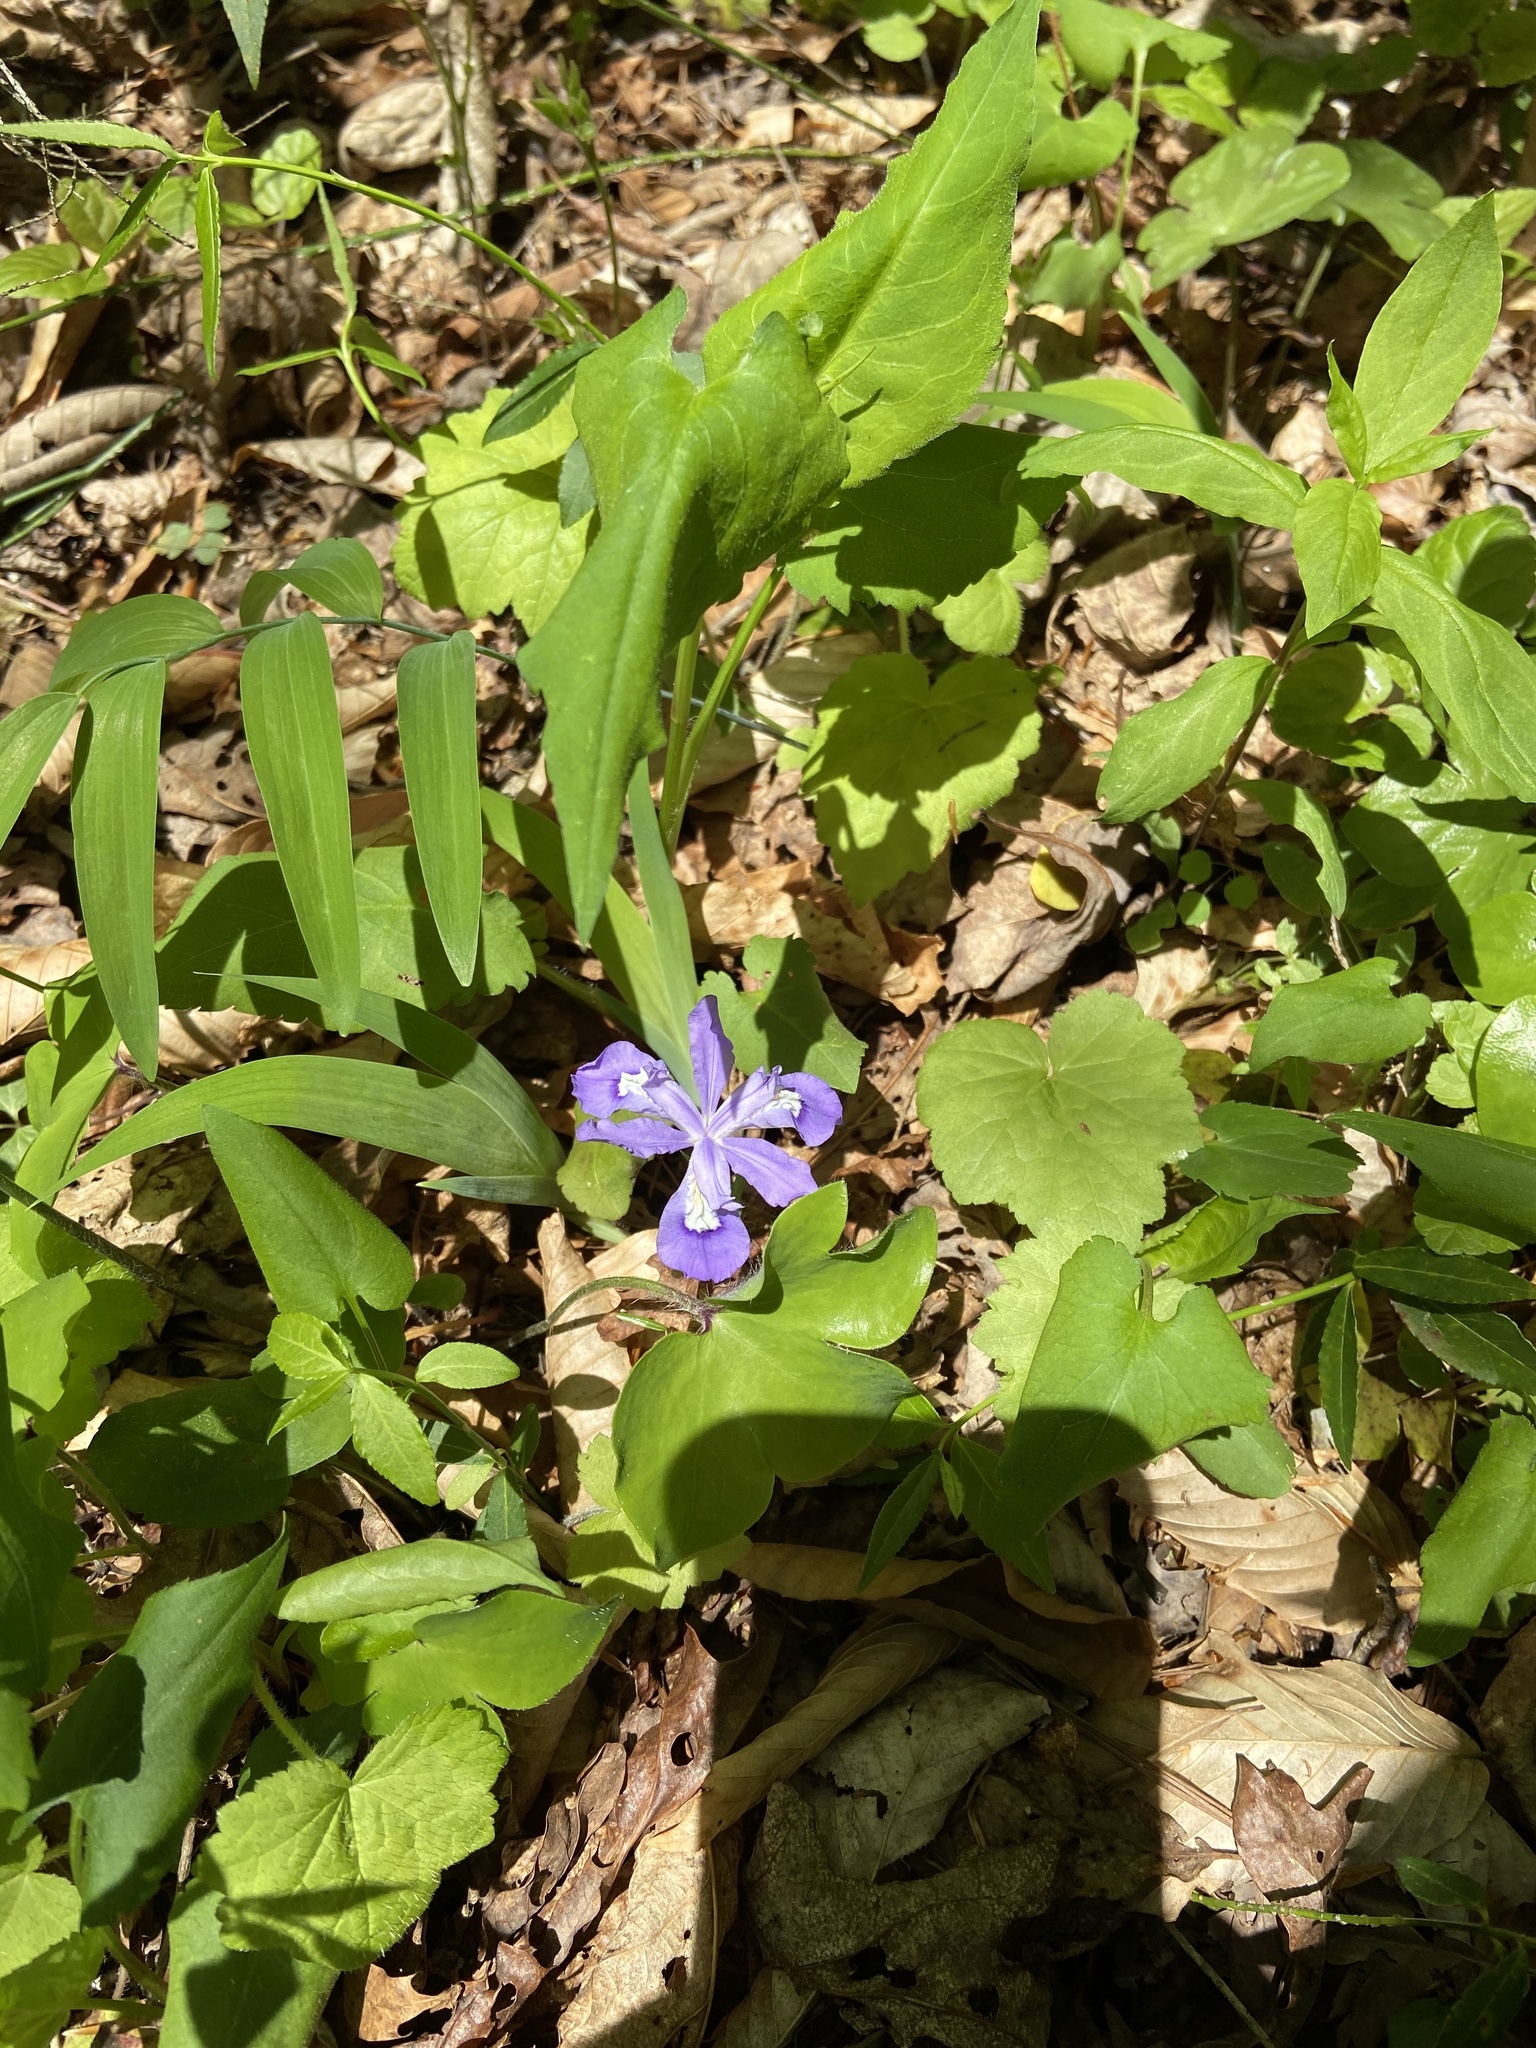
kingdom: Plantae
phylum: Tracheophyta
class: Liliopsida
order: Asparagales
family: Iridaceae
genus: Iris
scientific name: Iris cristata
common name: Crested iris
